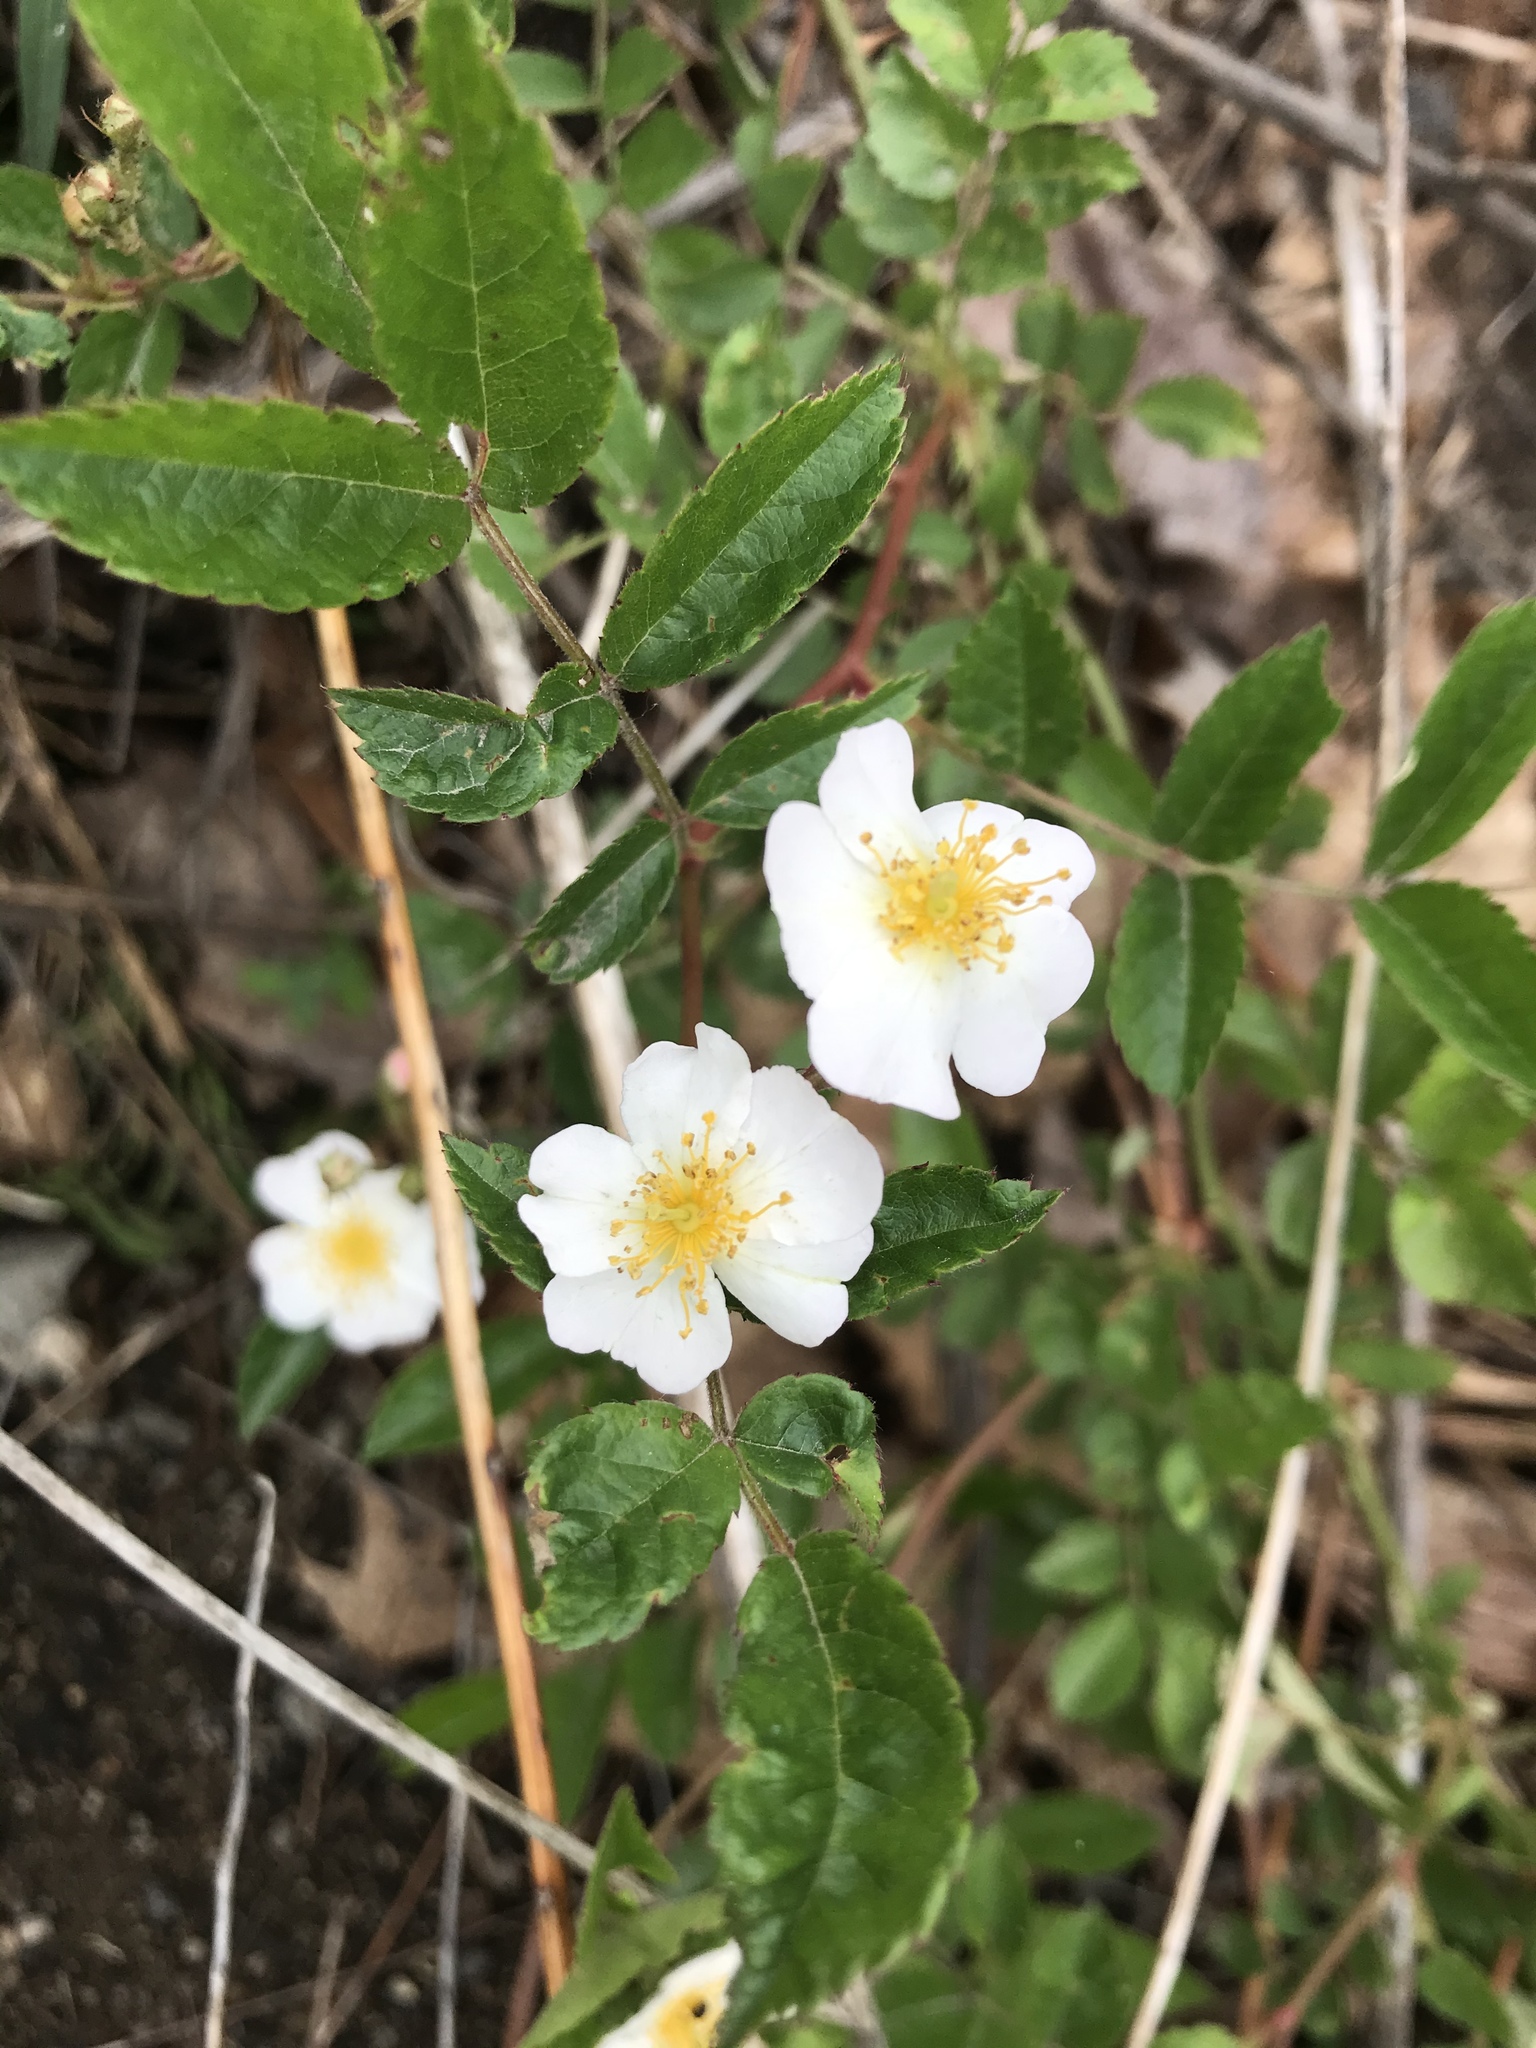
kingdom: Plantae
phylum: Tracheophyta
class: Magnoliopsida
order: Rosales
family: Rosaceae
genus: Rosa
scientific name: Rosa multiflora
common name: Multiflora rose
